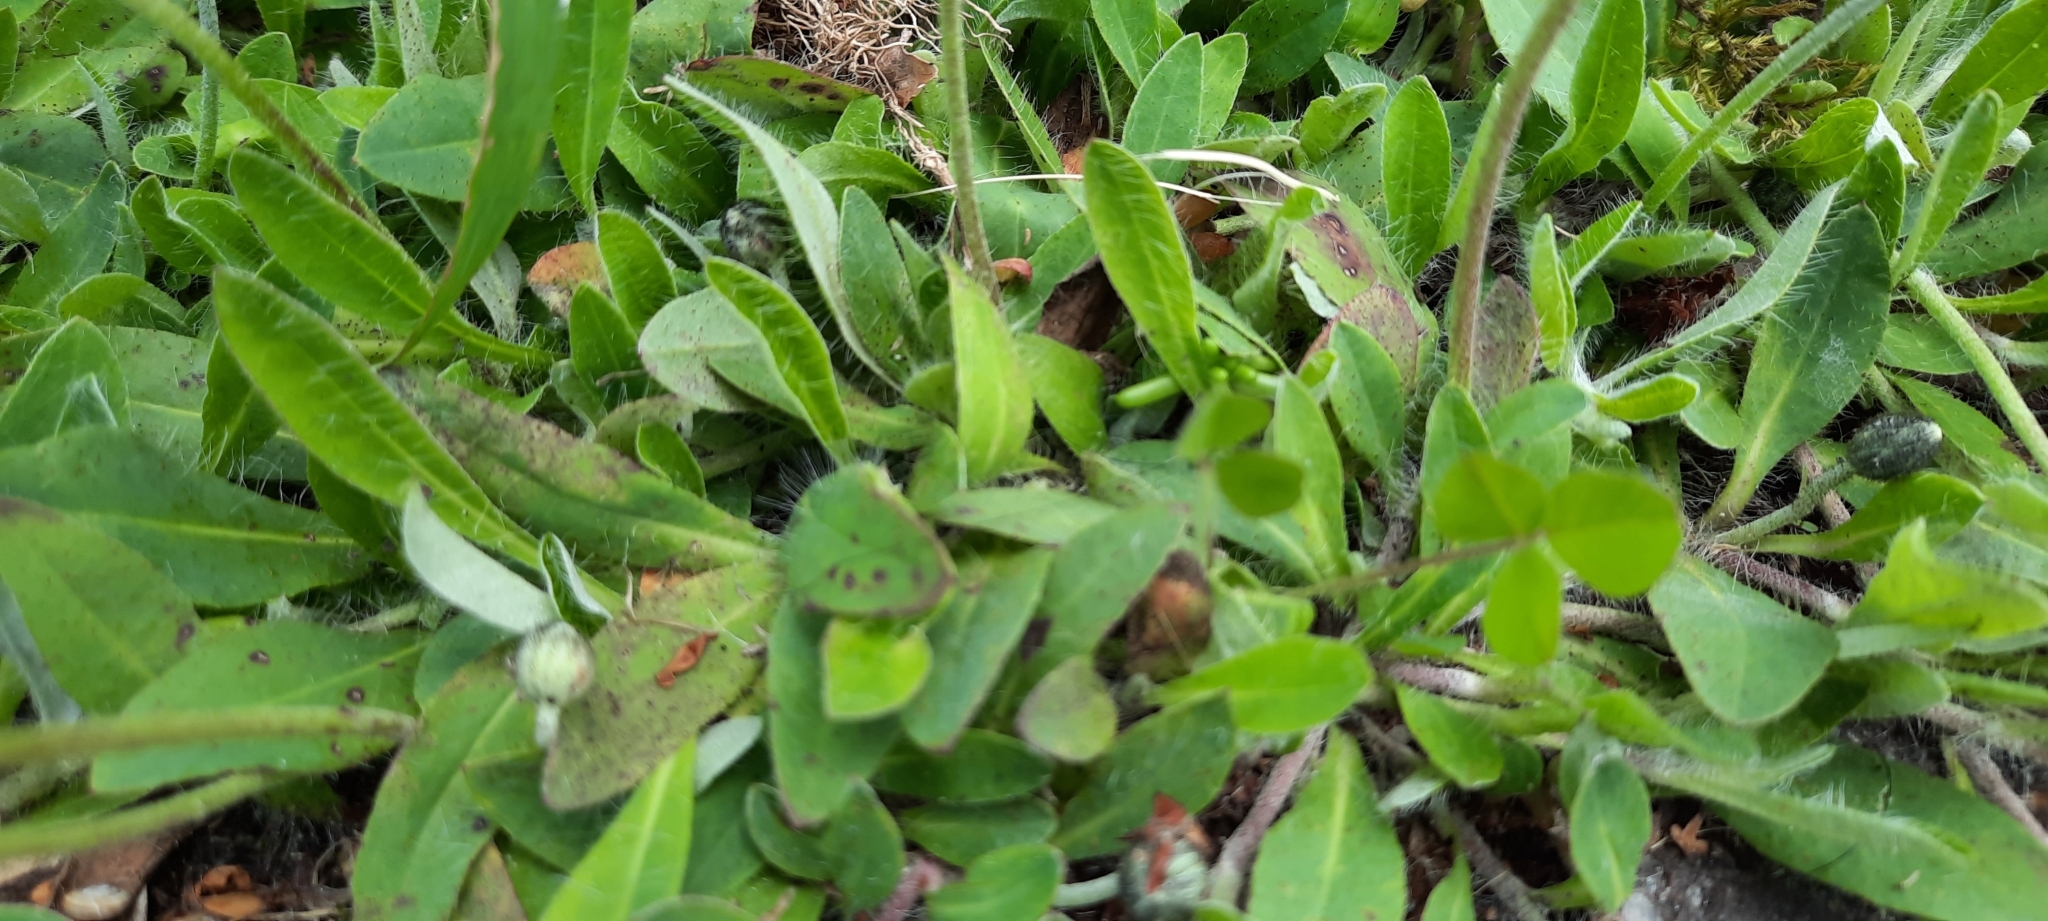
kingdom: Plantae
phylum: Tracheophyta
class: Magnoliopsida
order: Asterales
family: Asteraceae
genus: Pilosella
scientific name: Pilosella officinarum
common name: Mouse-ear hawkweed
